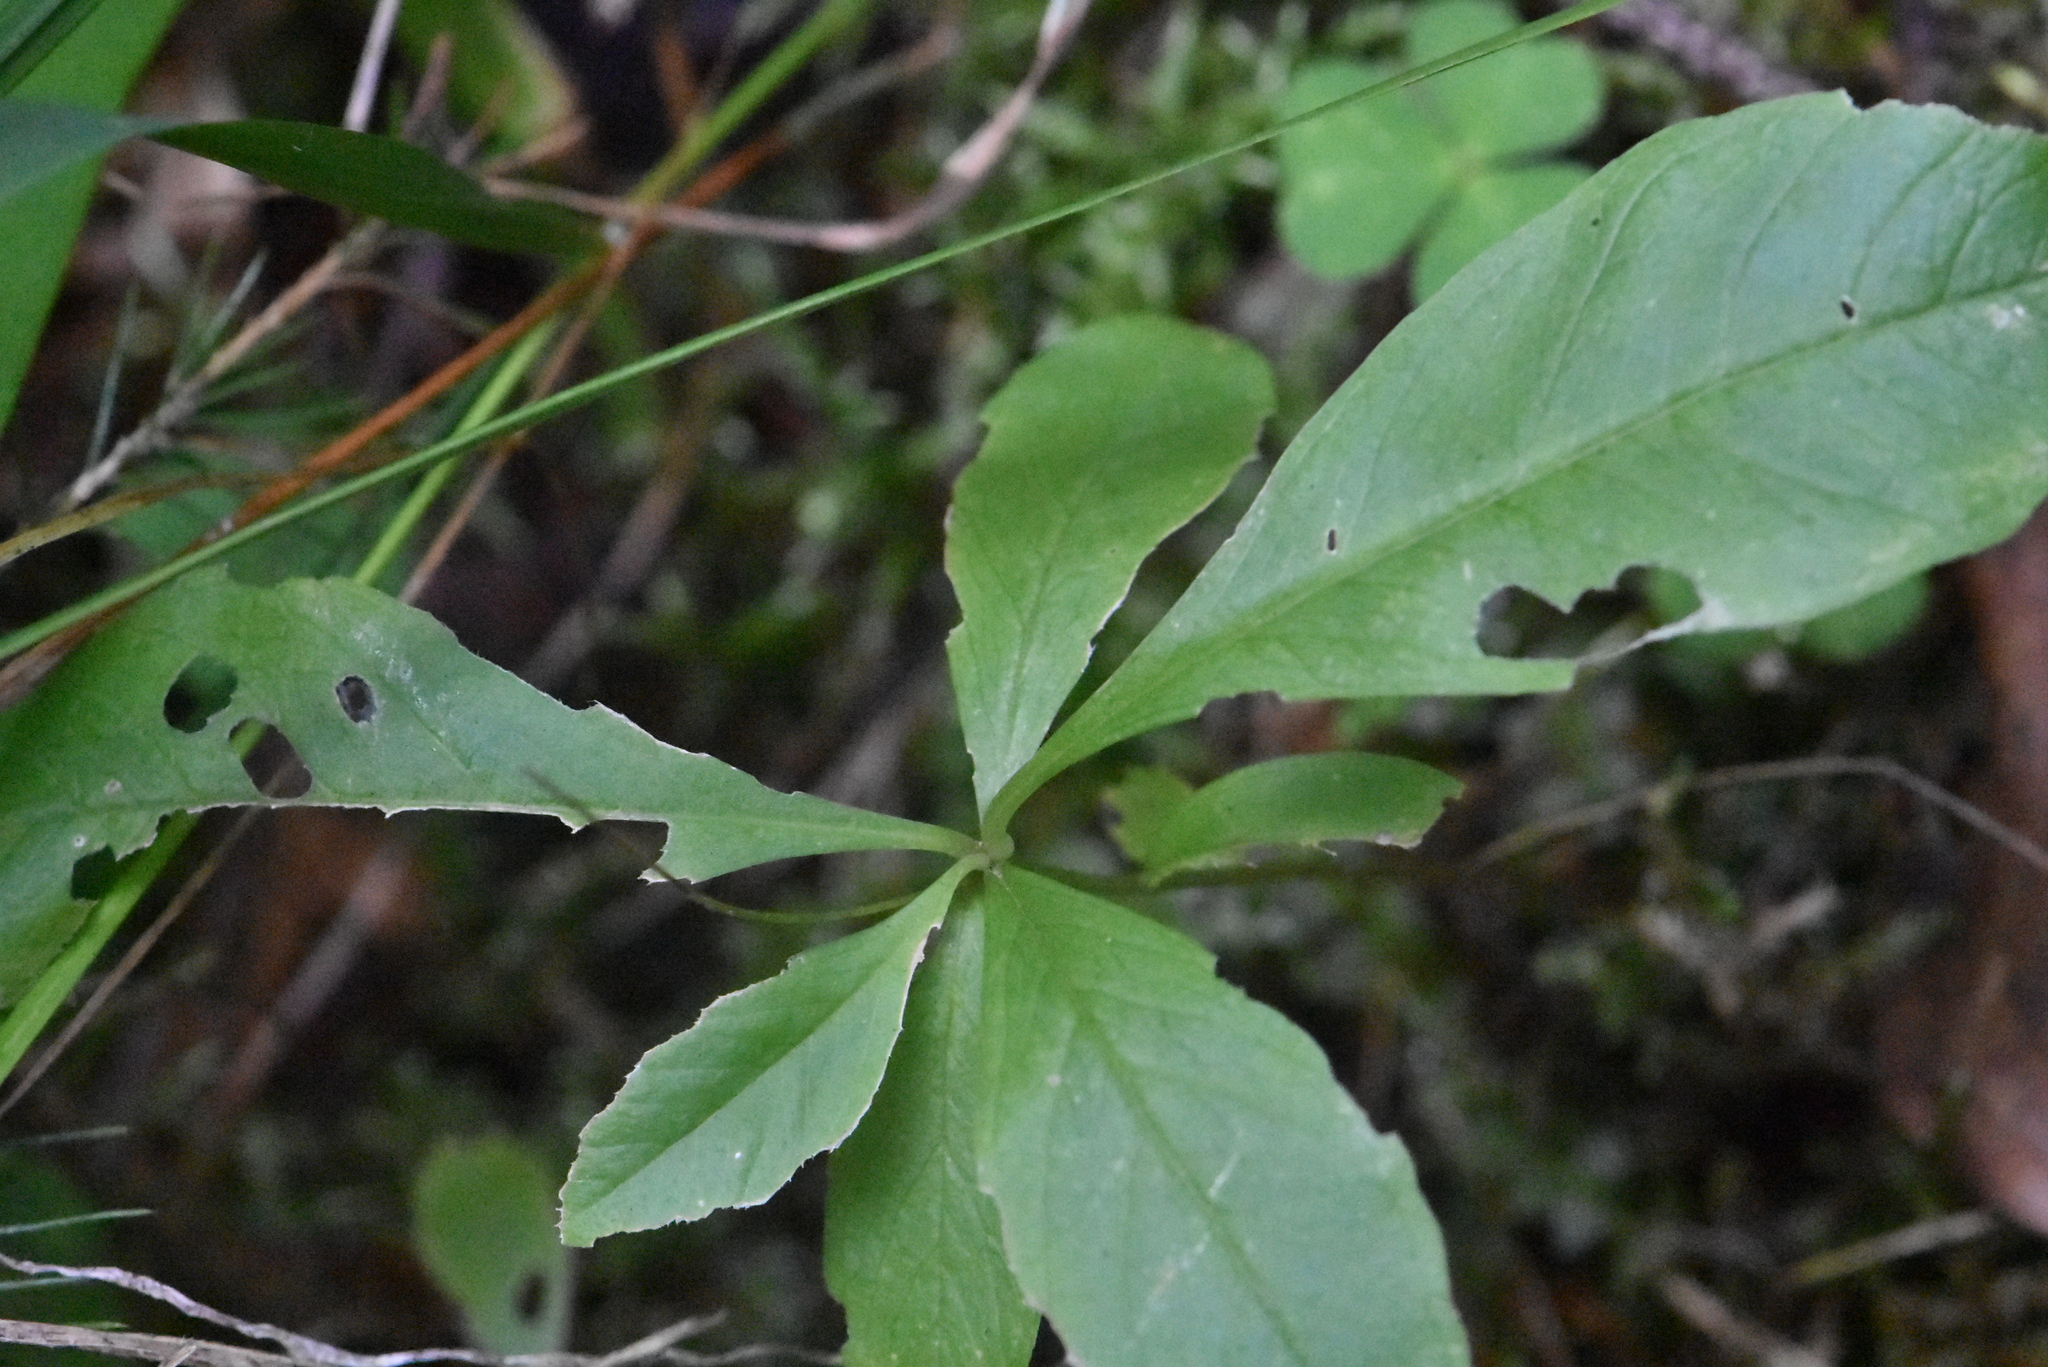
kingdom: Plantae
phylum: Tracheophyta
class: Magnoliopsida
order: Ericales
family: Primulaceae
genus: Lysimachia
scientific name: Lysimachia europaea
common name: Arctic starflower
